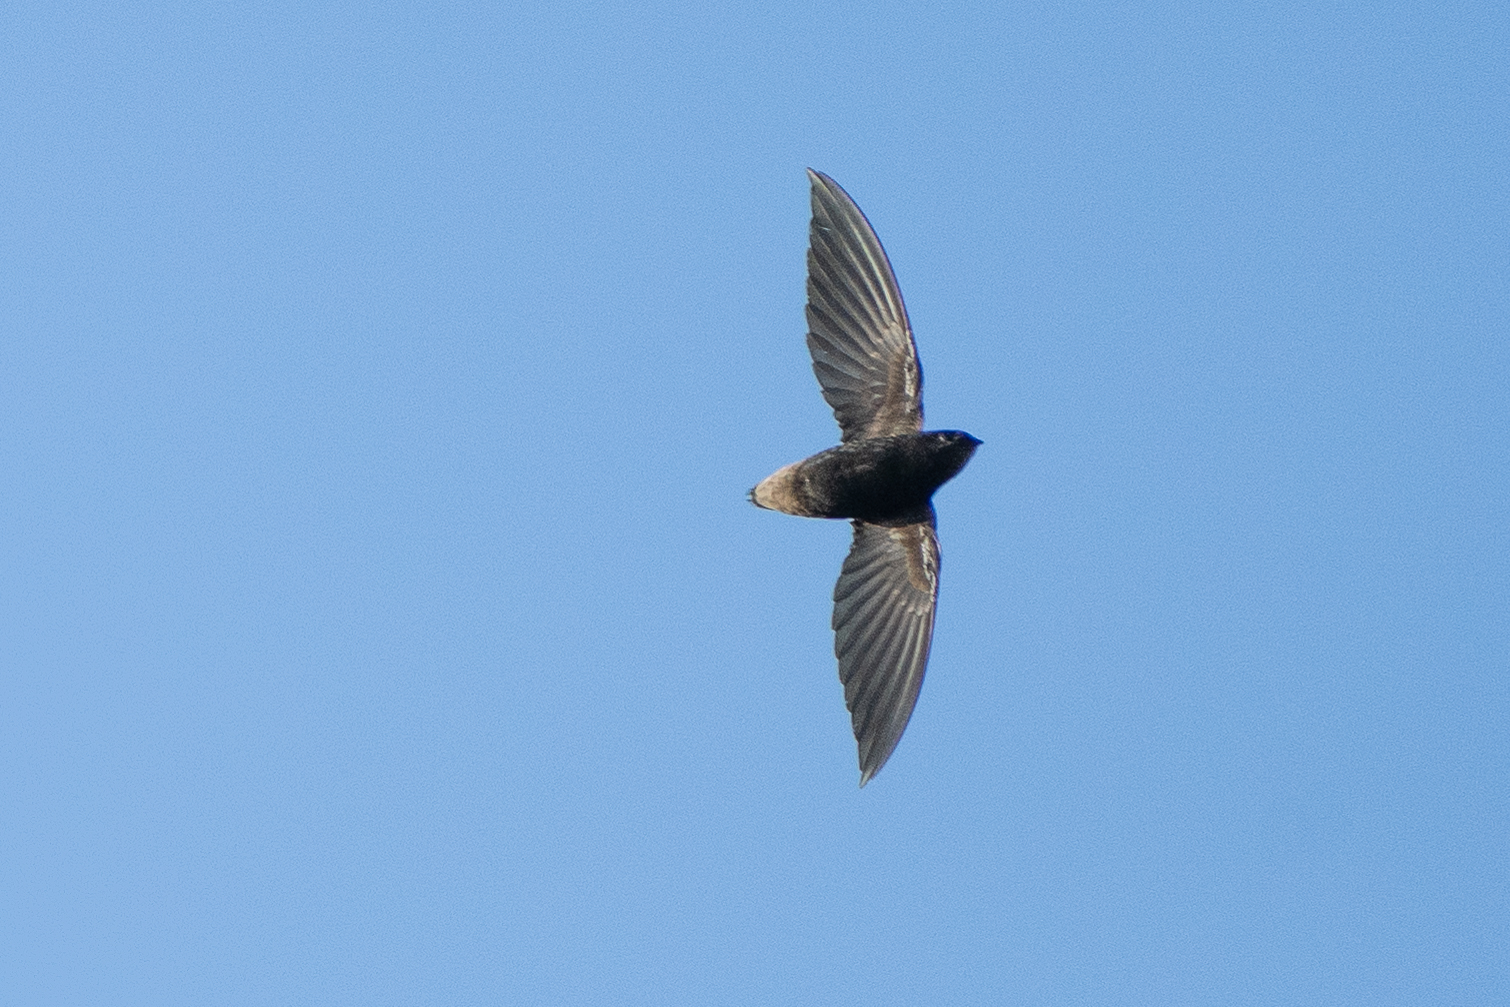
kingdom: Animalia
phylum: Chordata
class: Aves
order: Apodiformes
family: Apodidae
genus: Chaetura
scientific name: Chaetura brachyura
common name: Short-tailed swift
